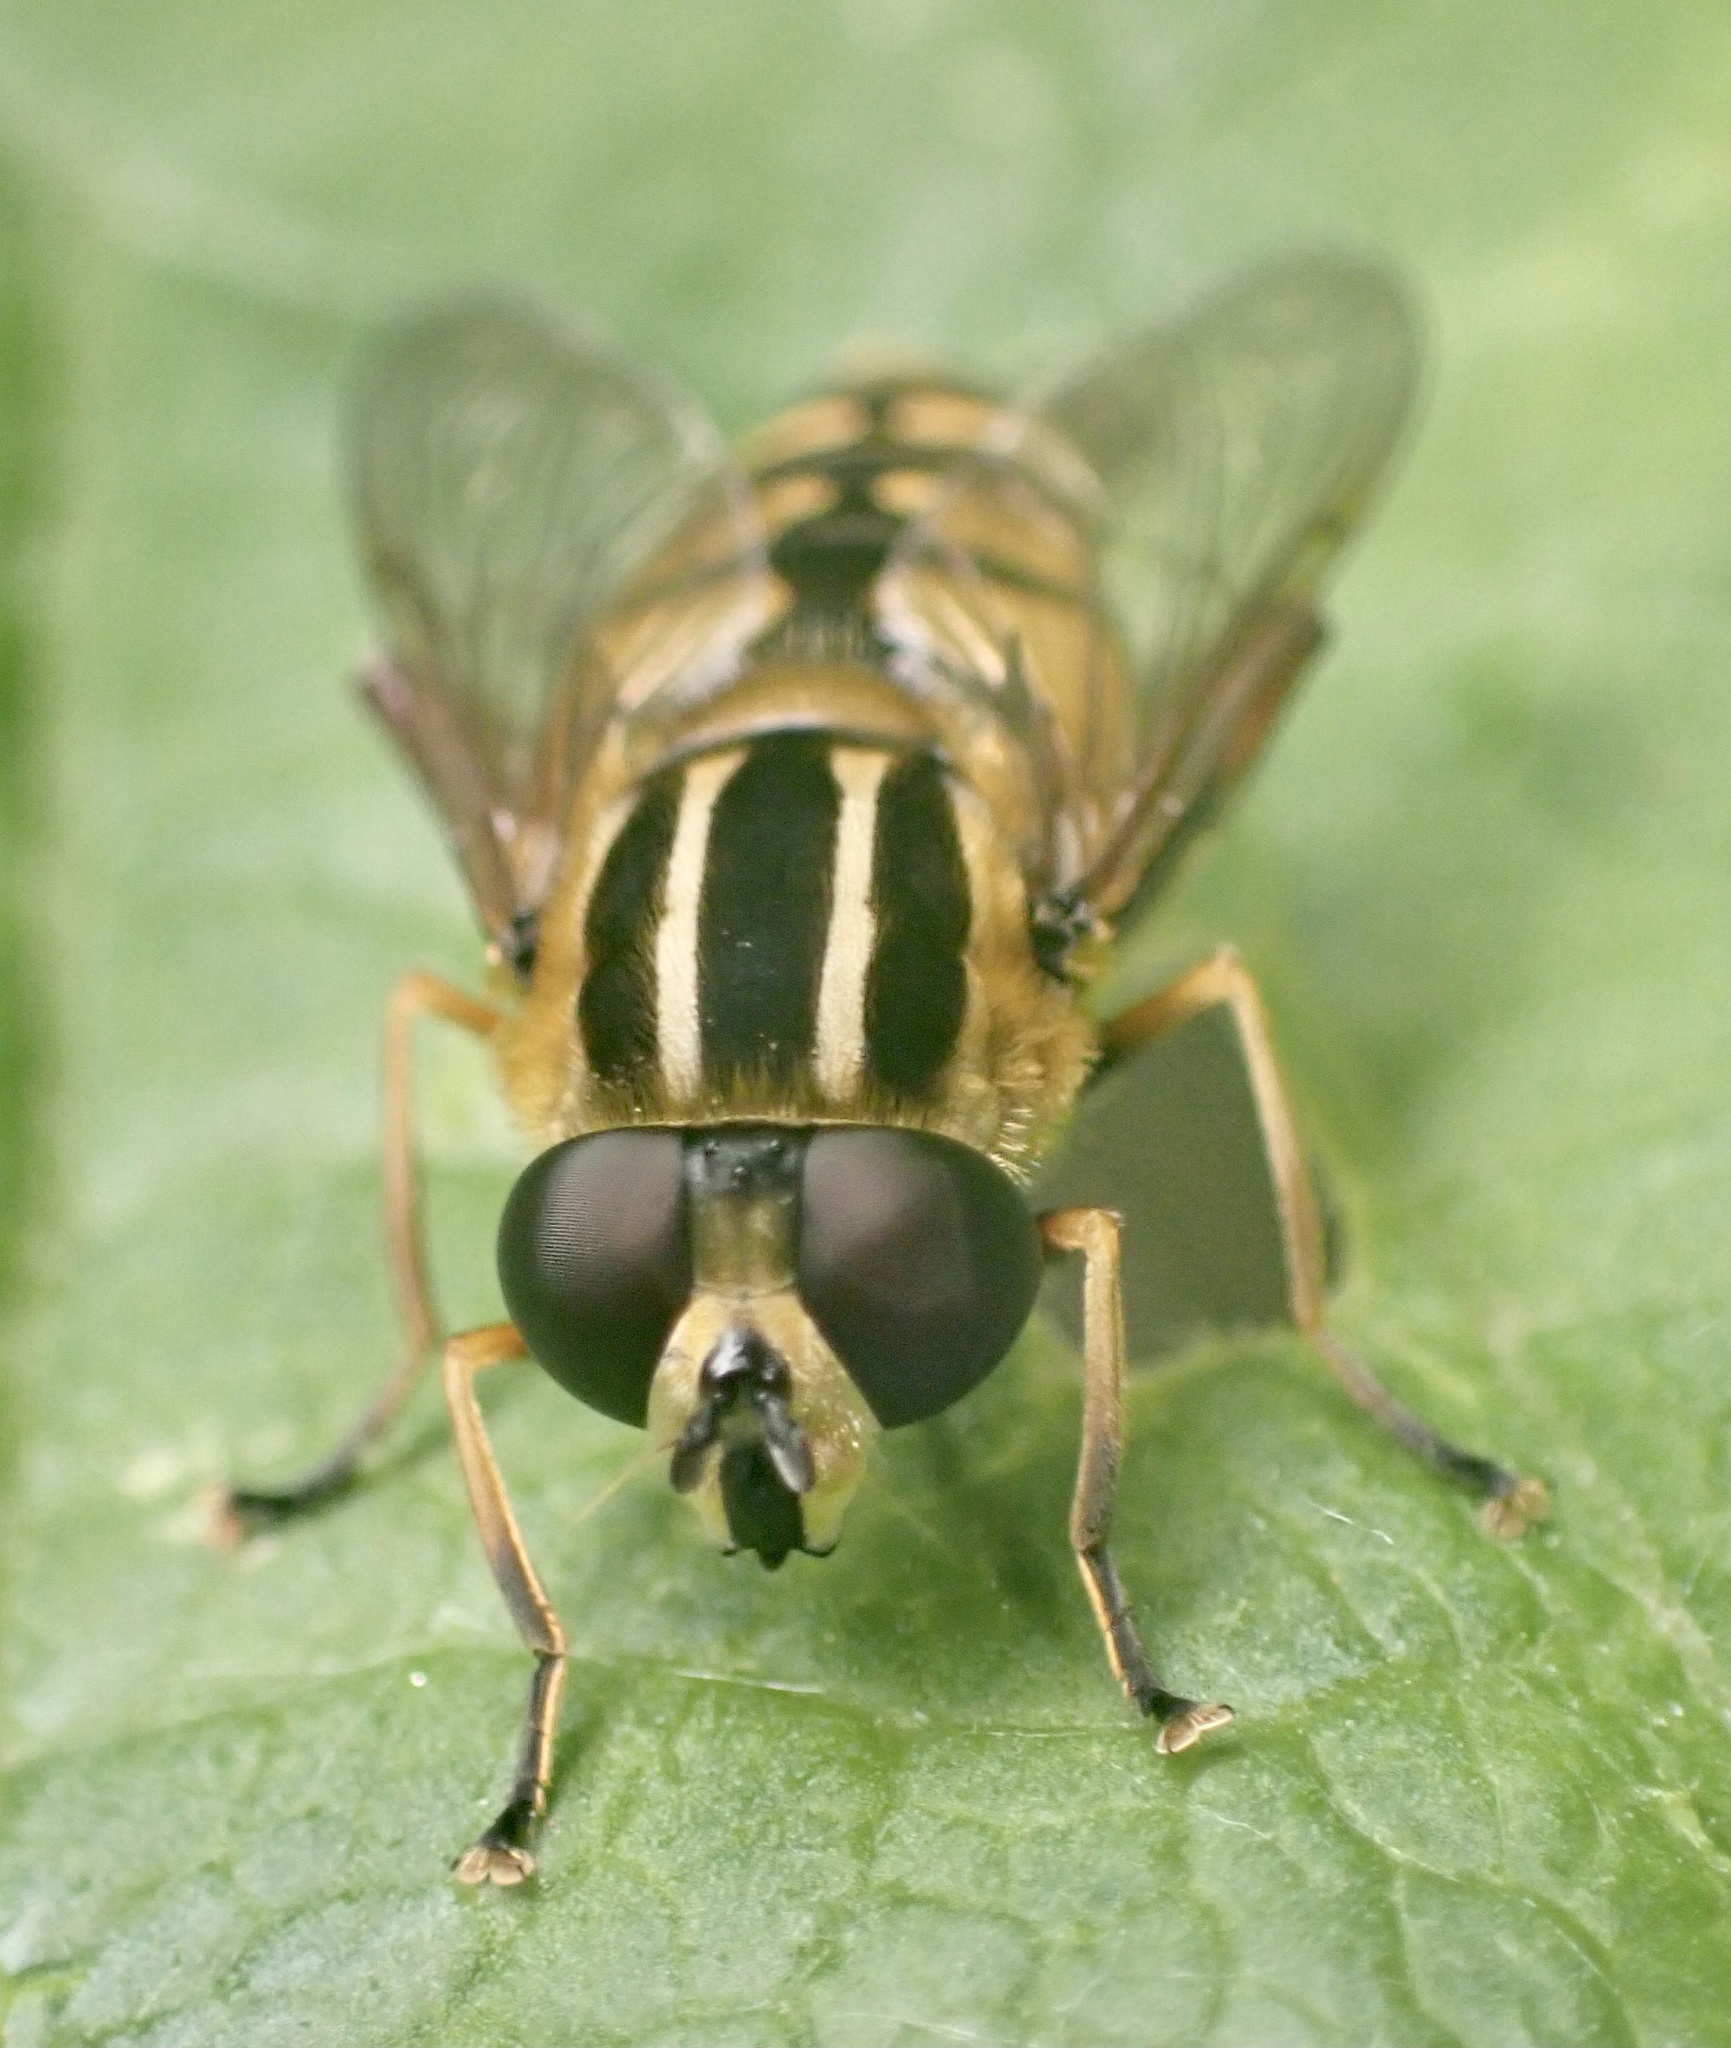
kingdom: Animalia
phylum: Arthropoda
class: Insecta
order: Diptera
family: Syrphidae
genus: Helophilus
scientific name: Helophilus pendulus
